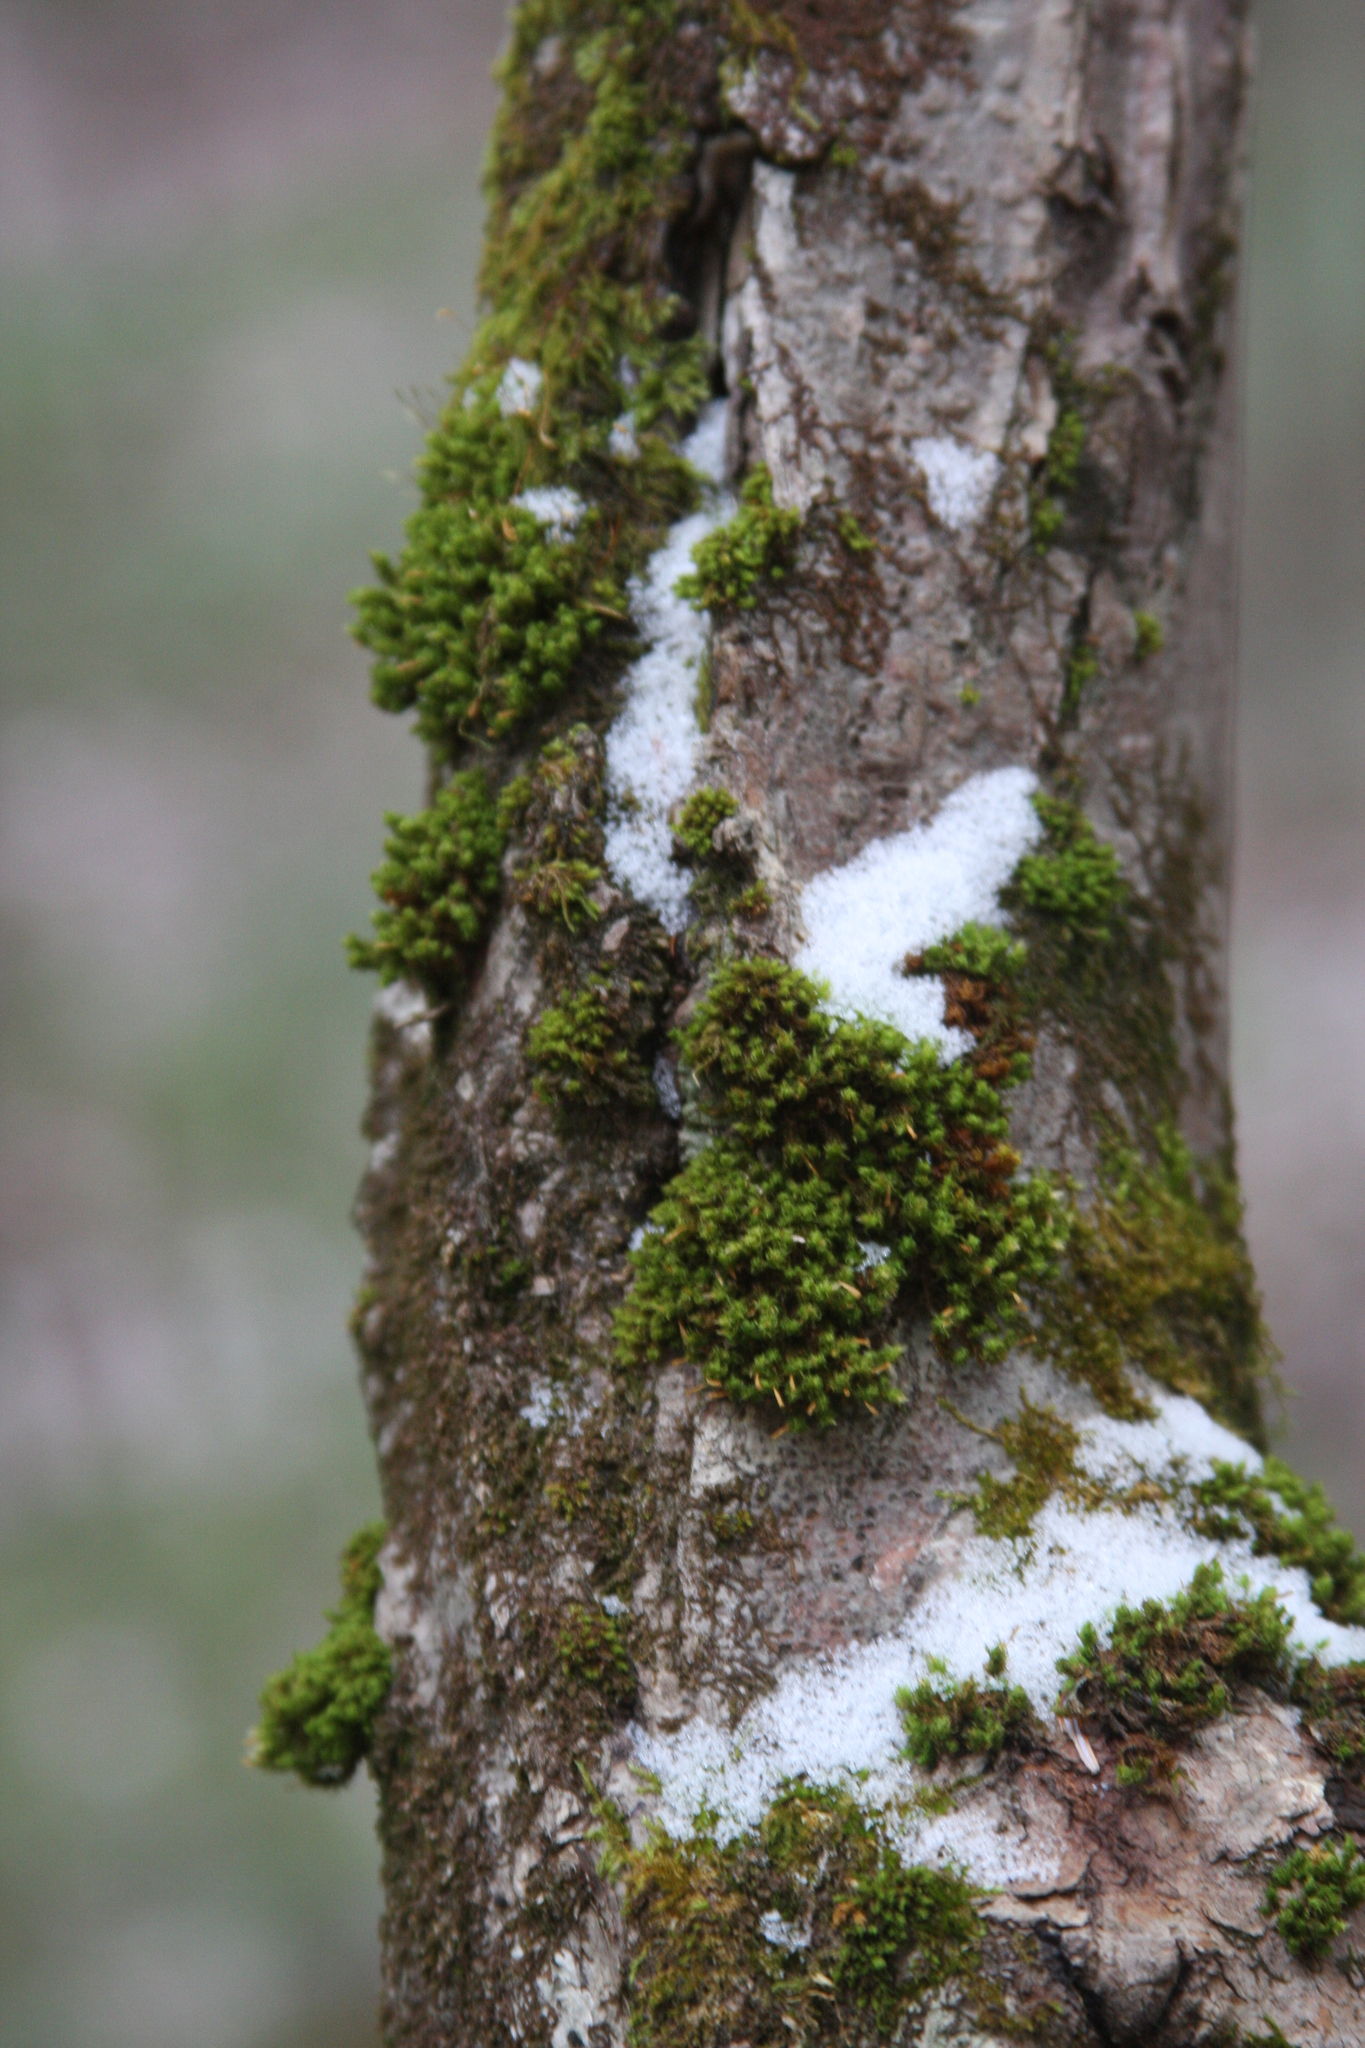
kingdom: Plantae
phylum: Bryophyta
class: Bryopsida
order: Orthotrichales
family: Orthotrichaceae
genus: Ulota
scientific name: Ulota crispa
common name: Crisped pincushion moss
